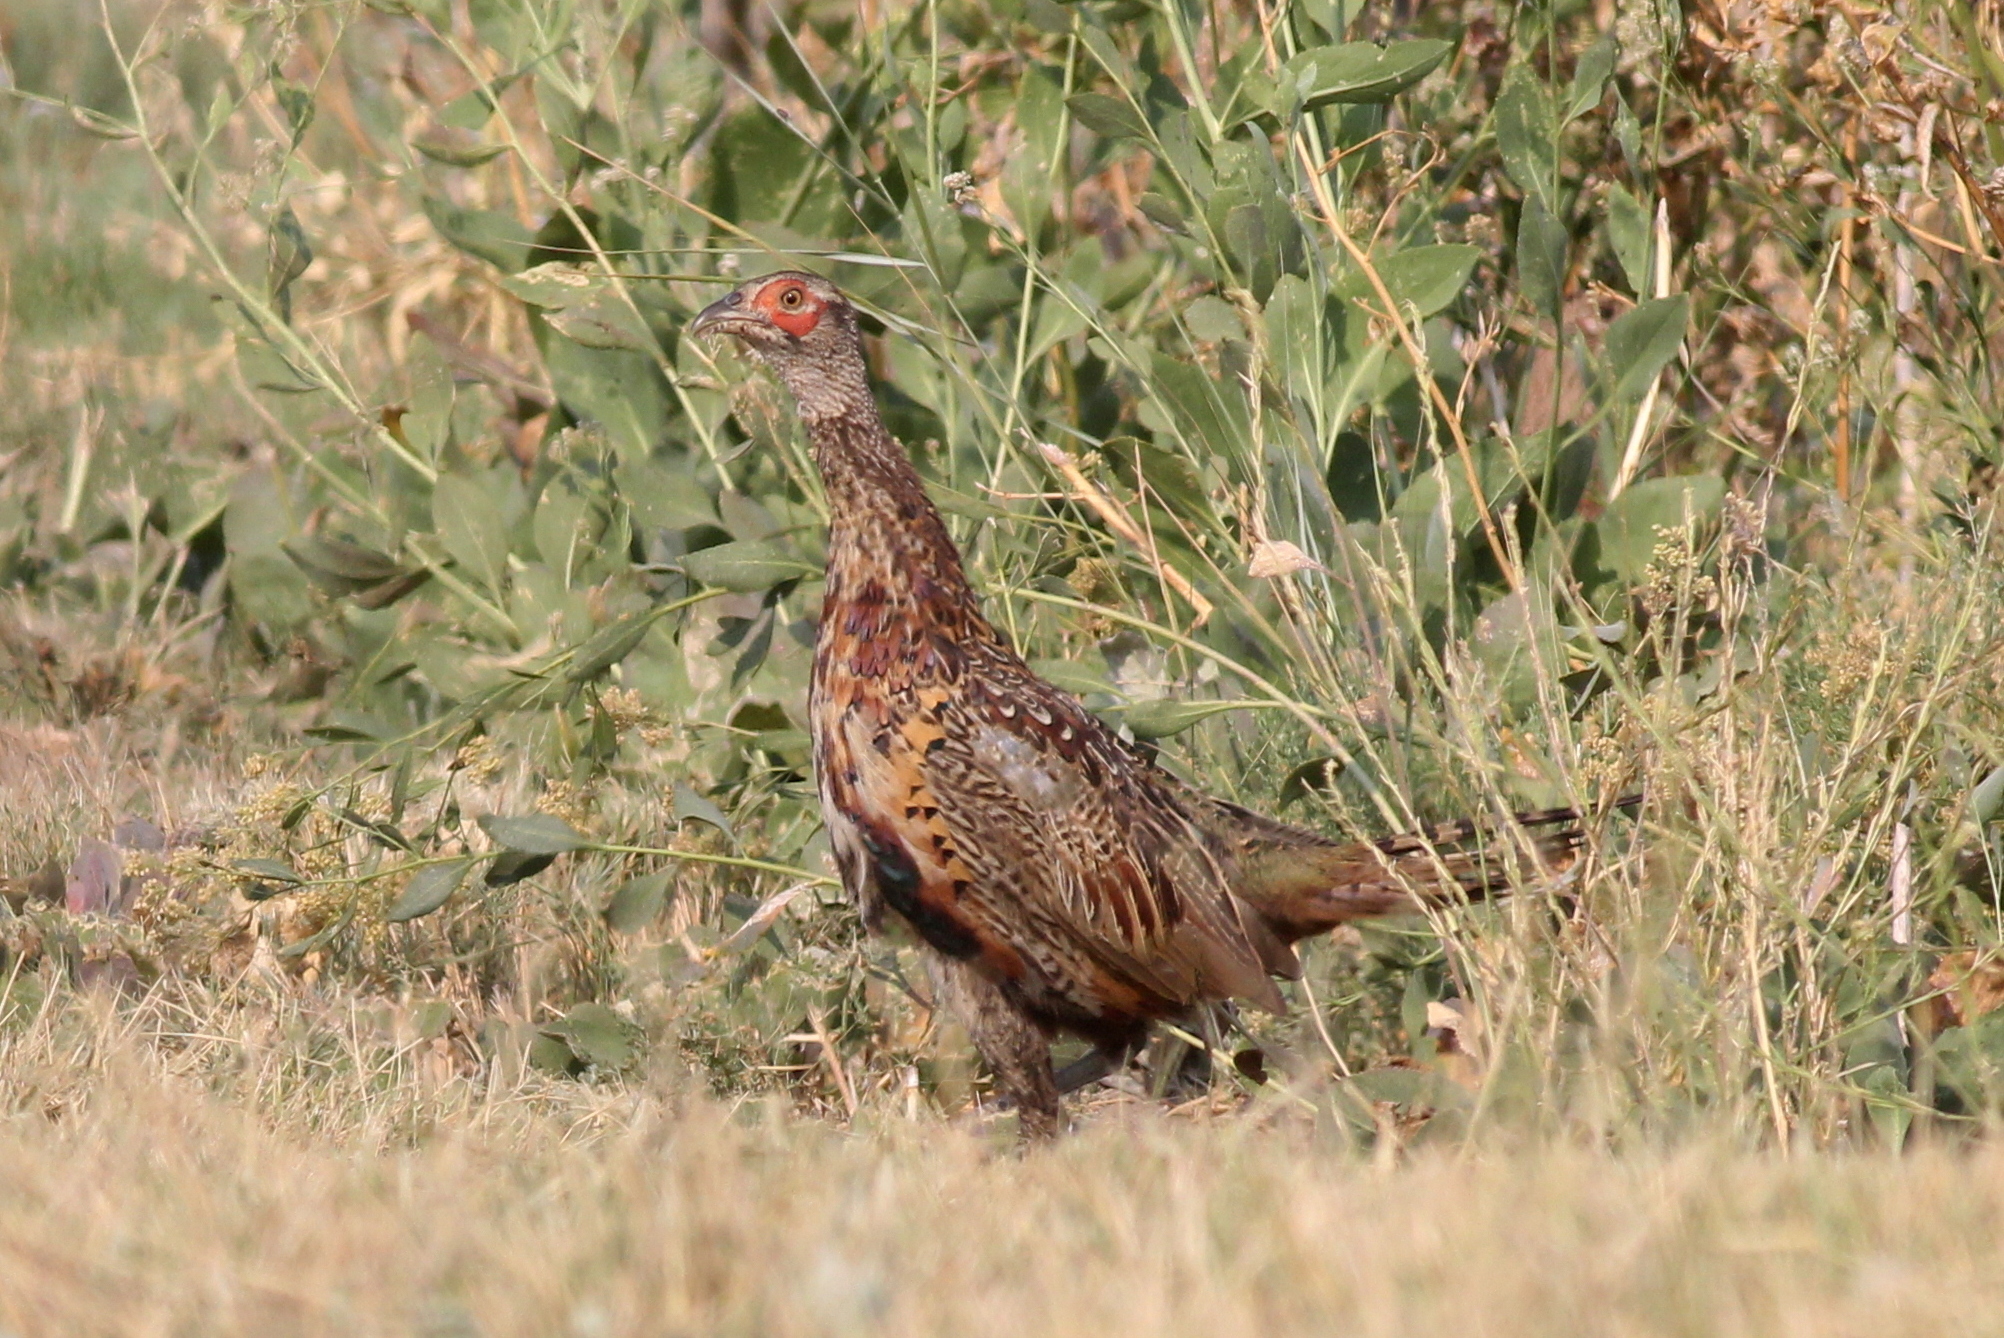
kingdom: Animalia
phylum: Chordata
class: Aves
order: Galliformes
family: Phasianidae
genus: Phasianus
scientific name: Phasianus colchicus
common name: Common pheasant
